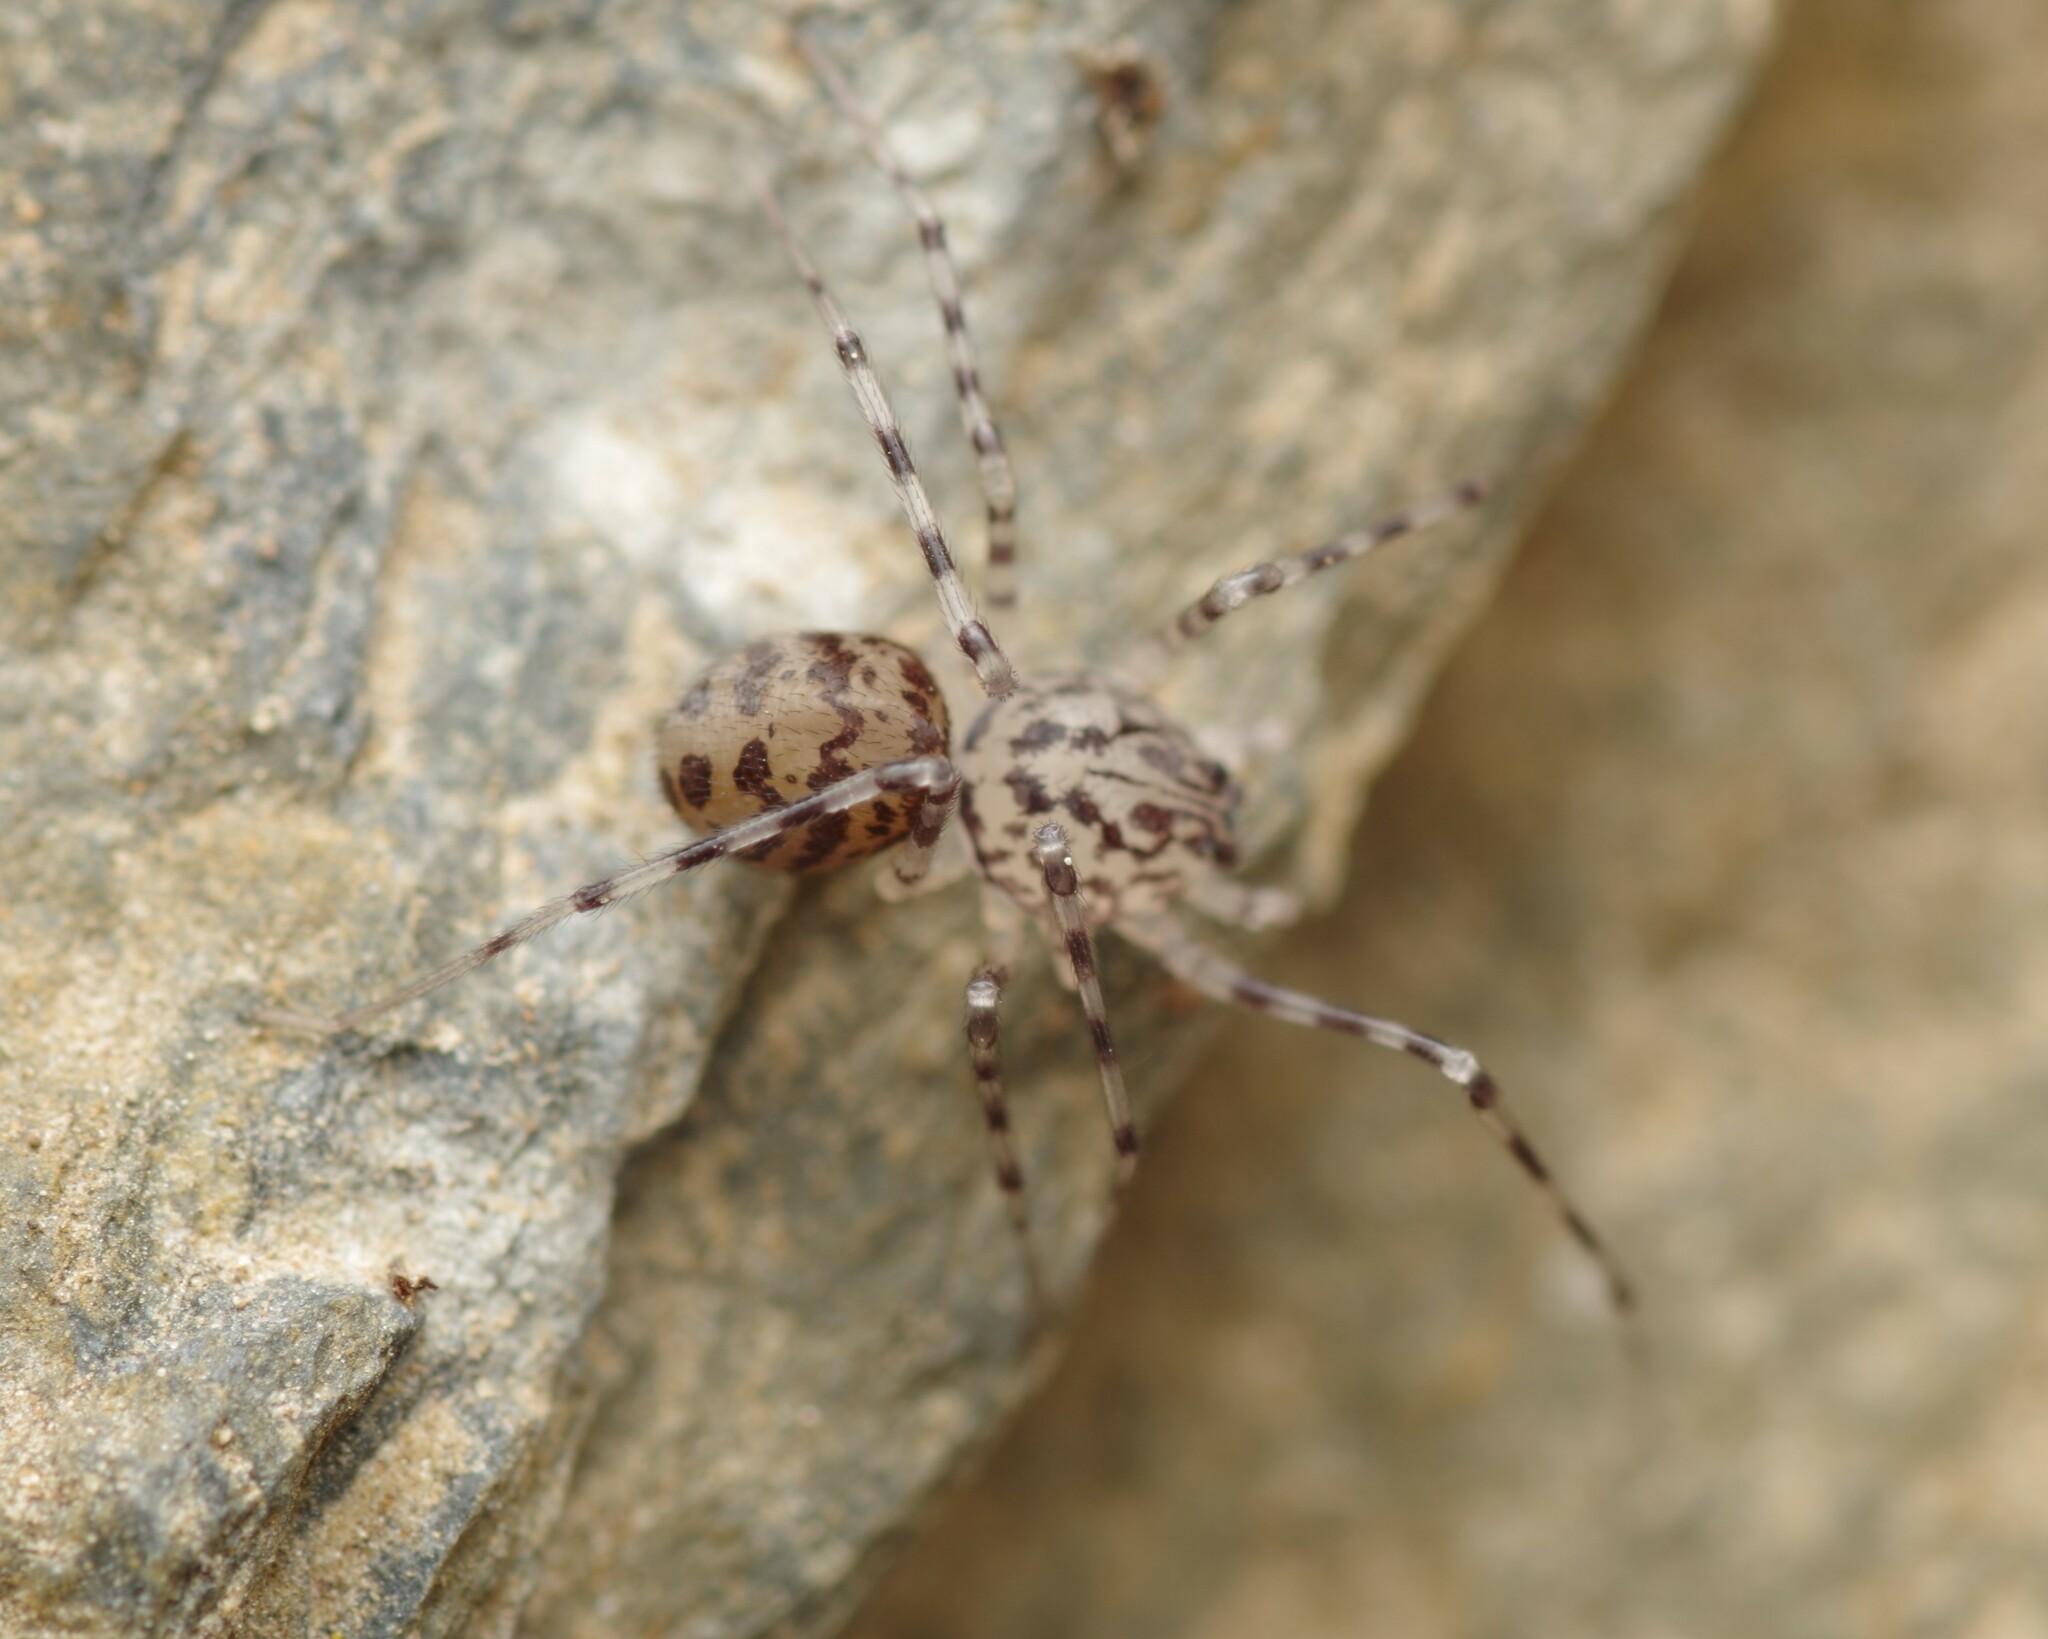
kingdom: Animalia
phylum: Arthropoda
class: Arachnida
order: Araneae
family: Scytodidae
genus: Scytodes
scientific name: Scytodes thoracica
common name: Spitting spider
